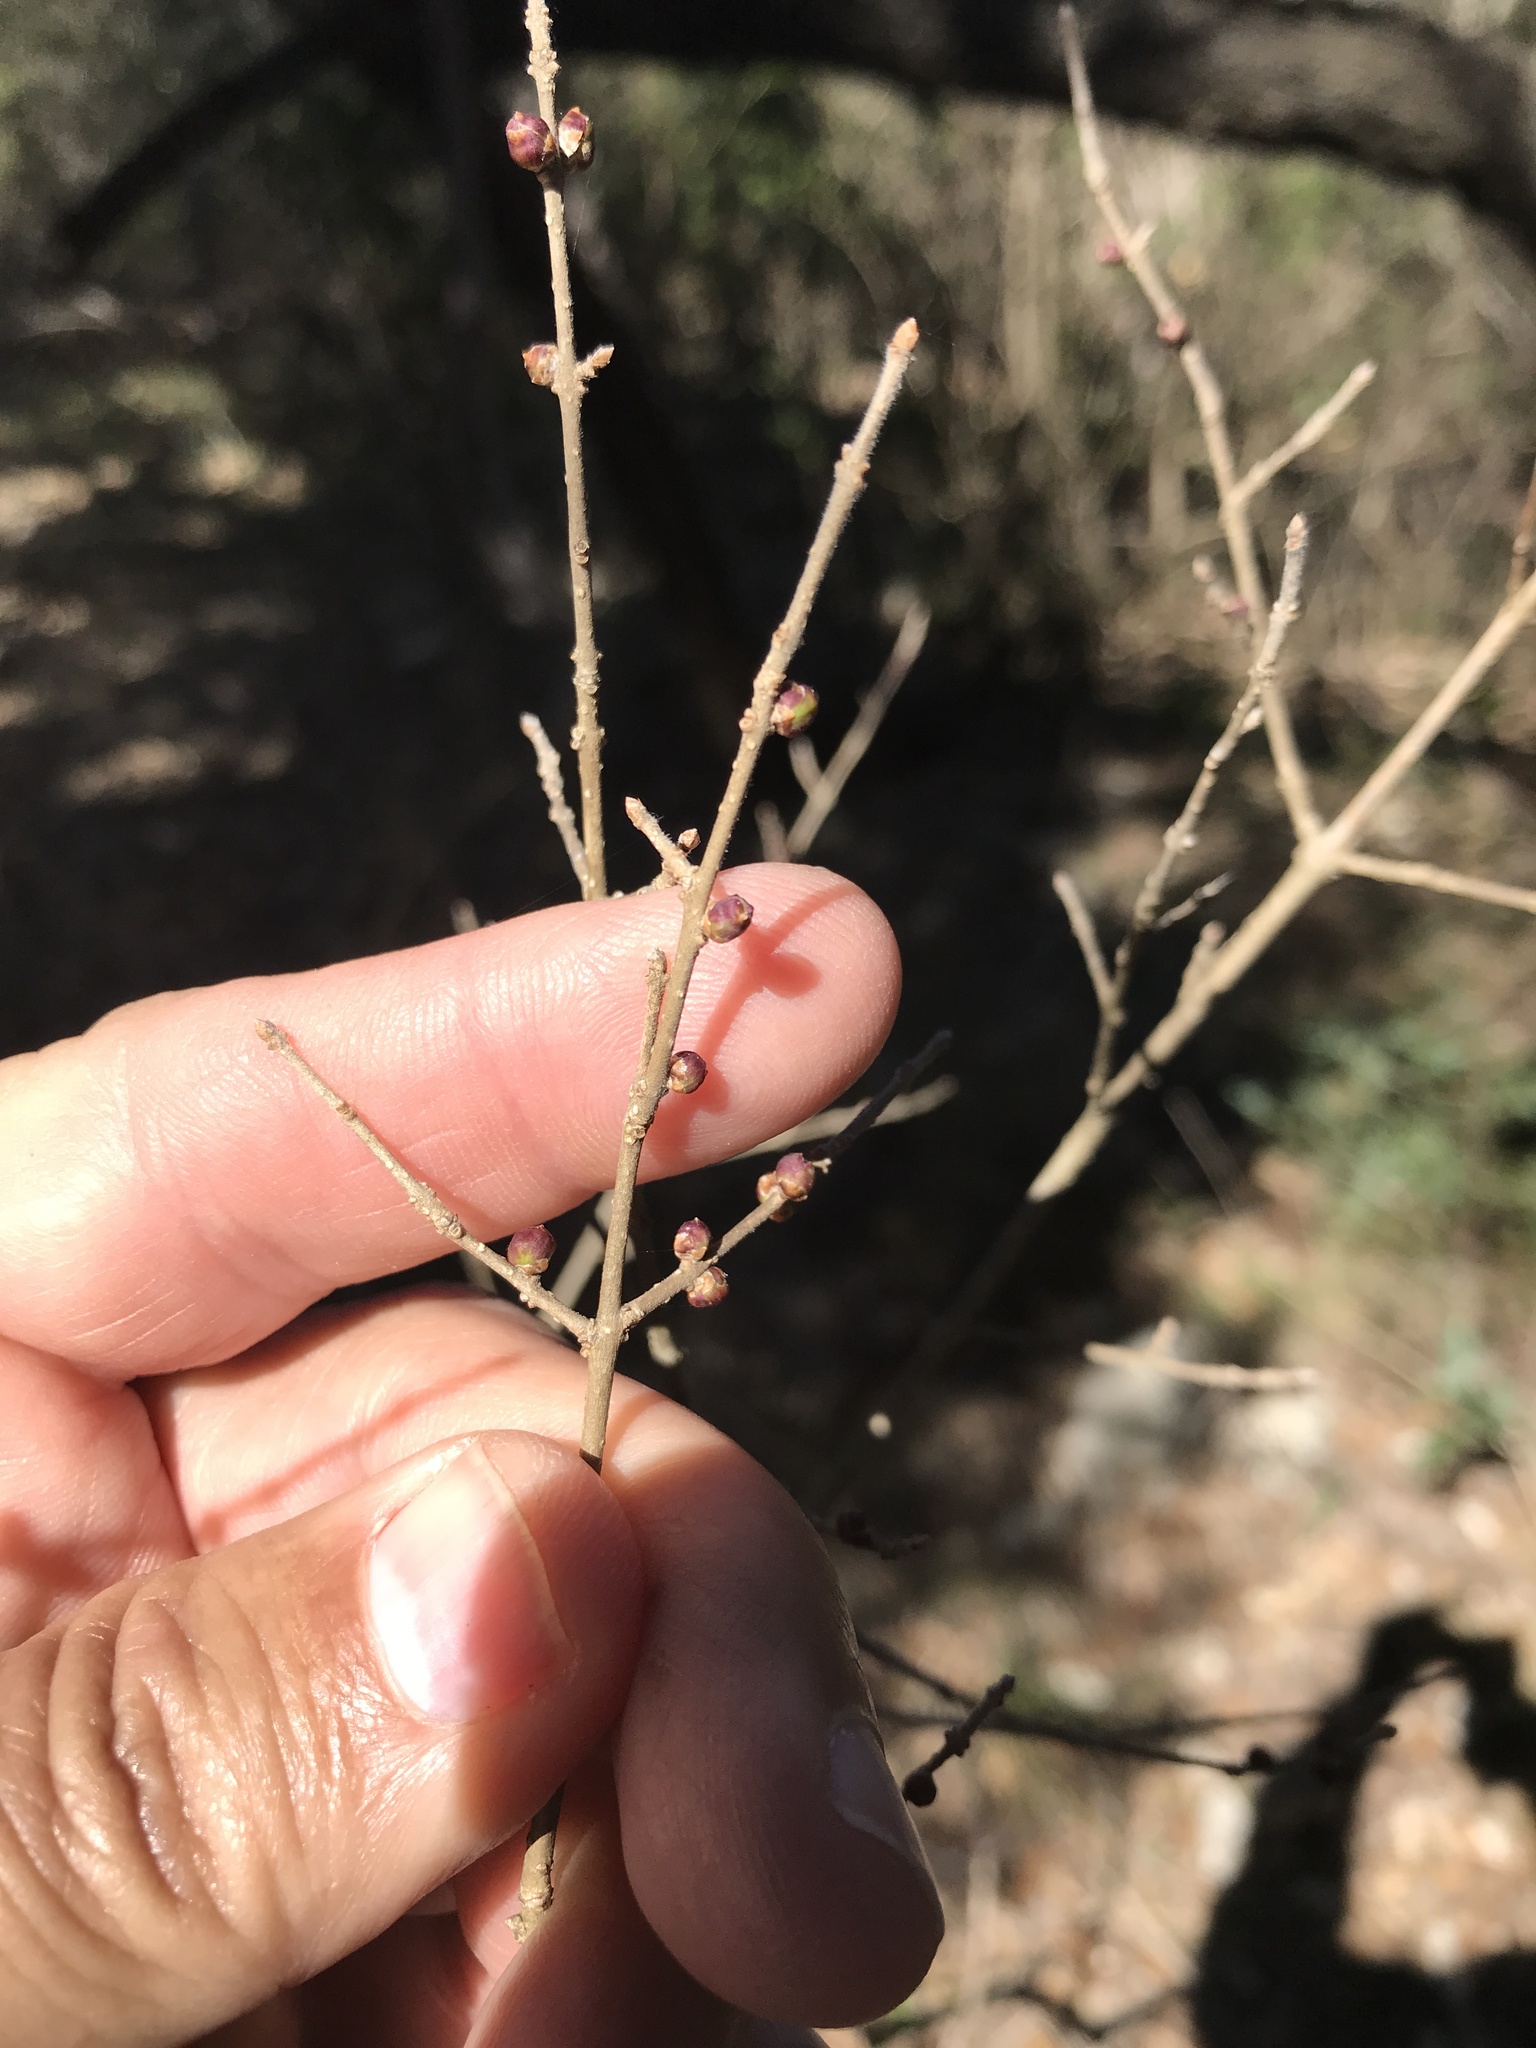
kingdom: Plantae
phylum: Tracheophyta
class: Magnoliopsida
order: Lamiales
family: Oleaceae
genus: Forestiera
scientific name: Forestiera pubescens
